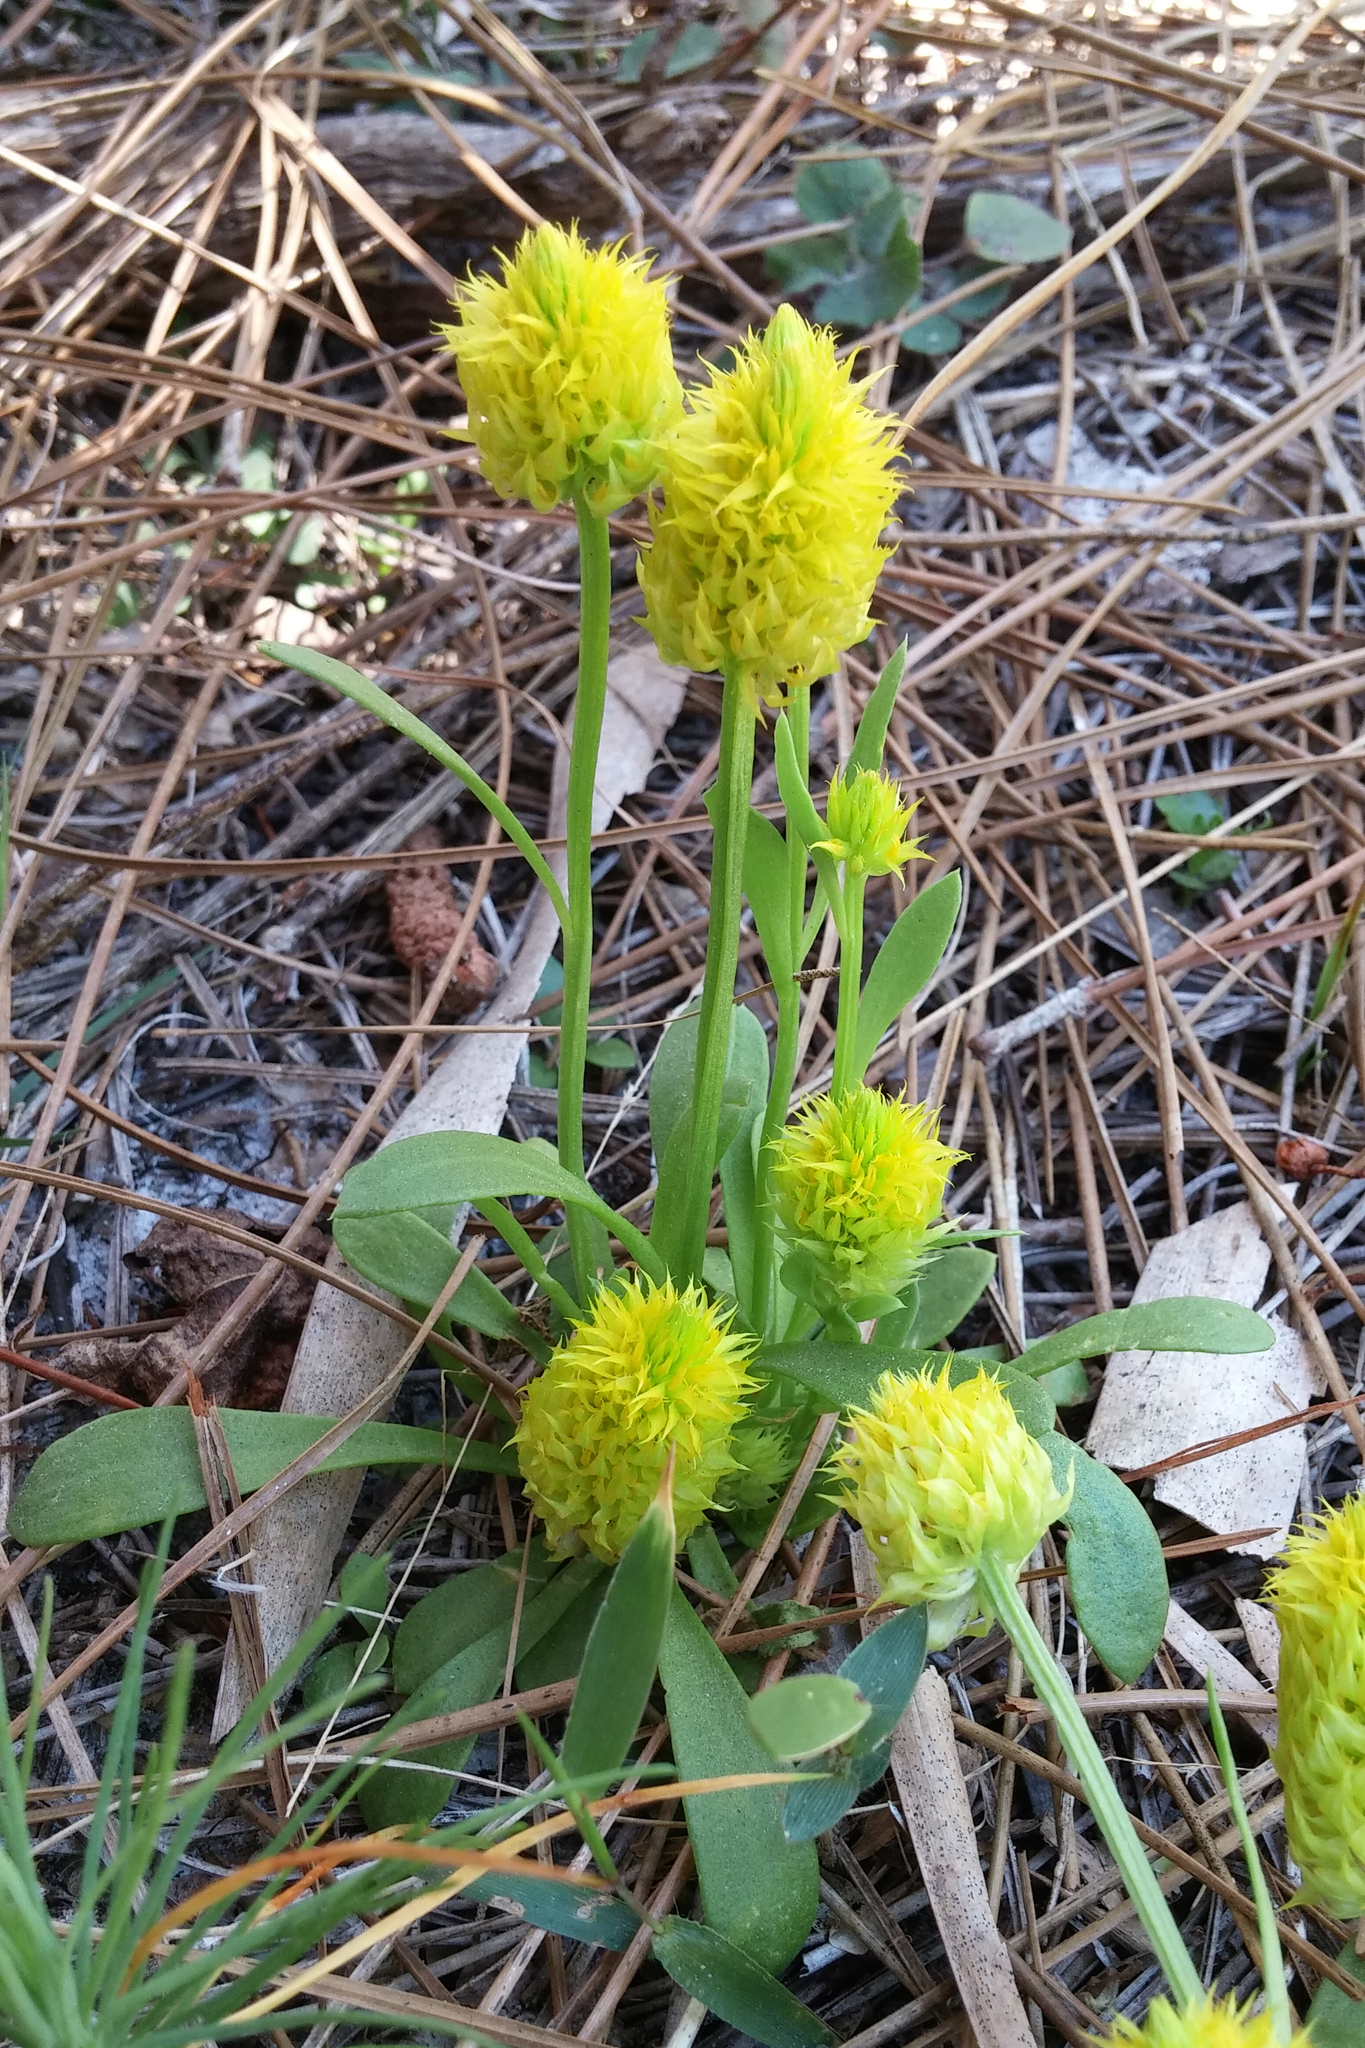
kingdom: Plantae
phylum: Tracheophyta
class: Magnoliopsida
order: Fabales
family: Polygalaceae
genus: Polygala
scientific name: Polygala nana
